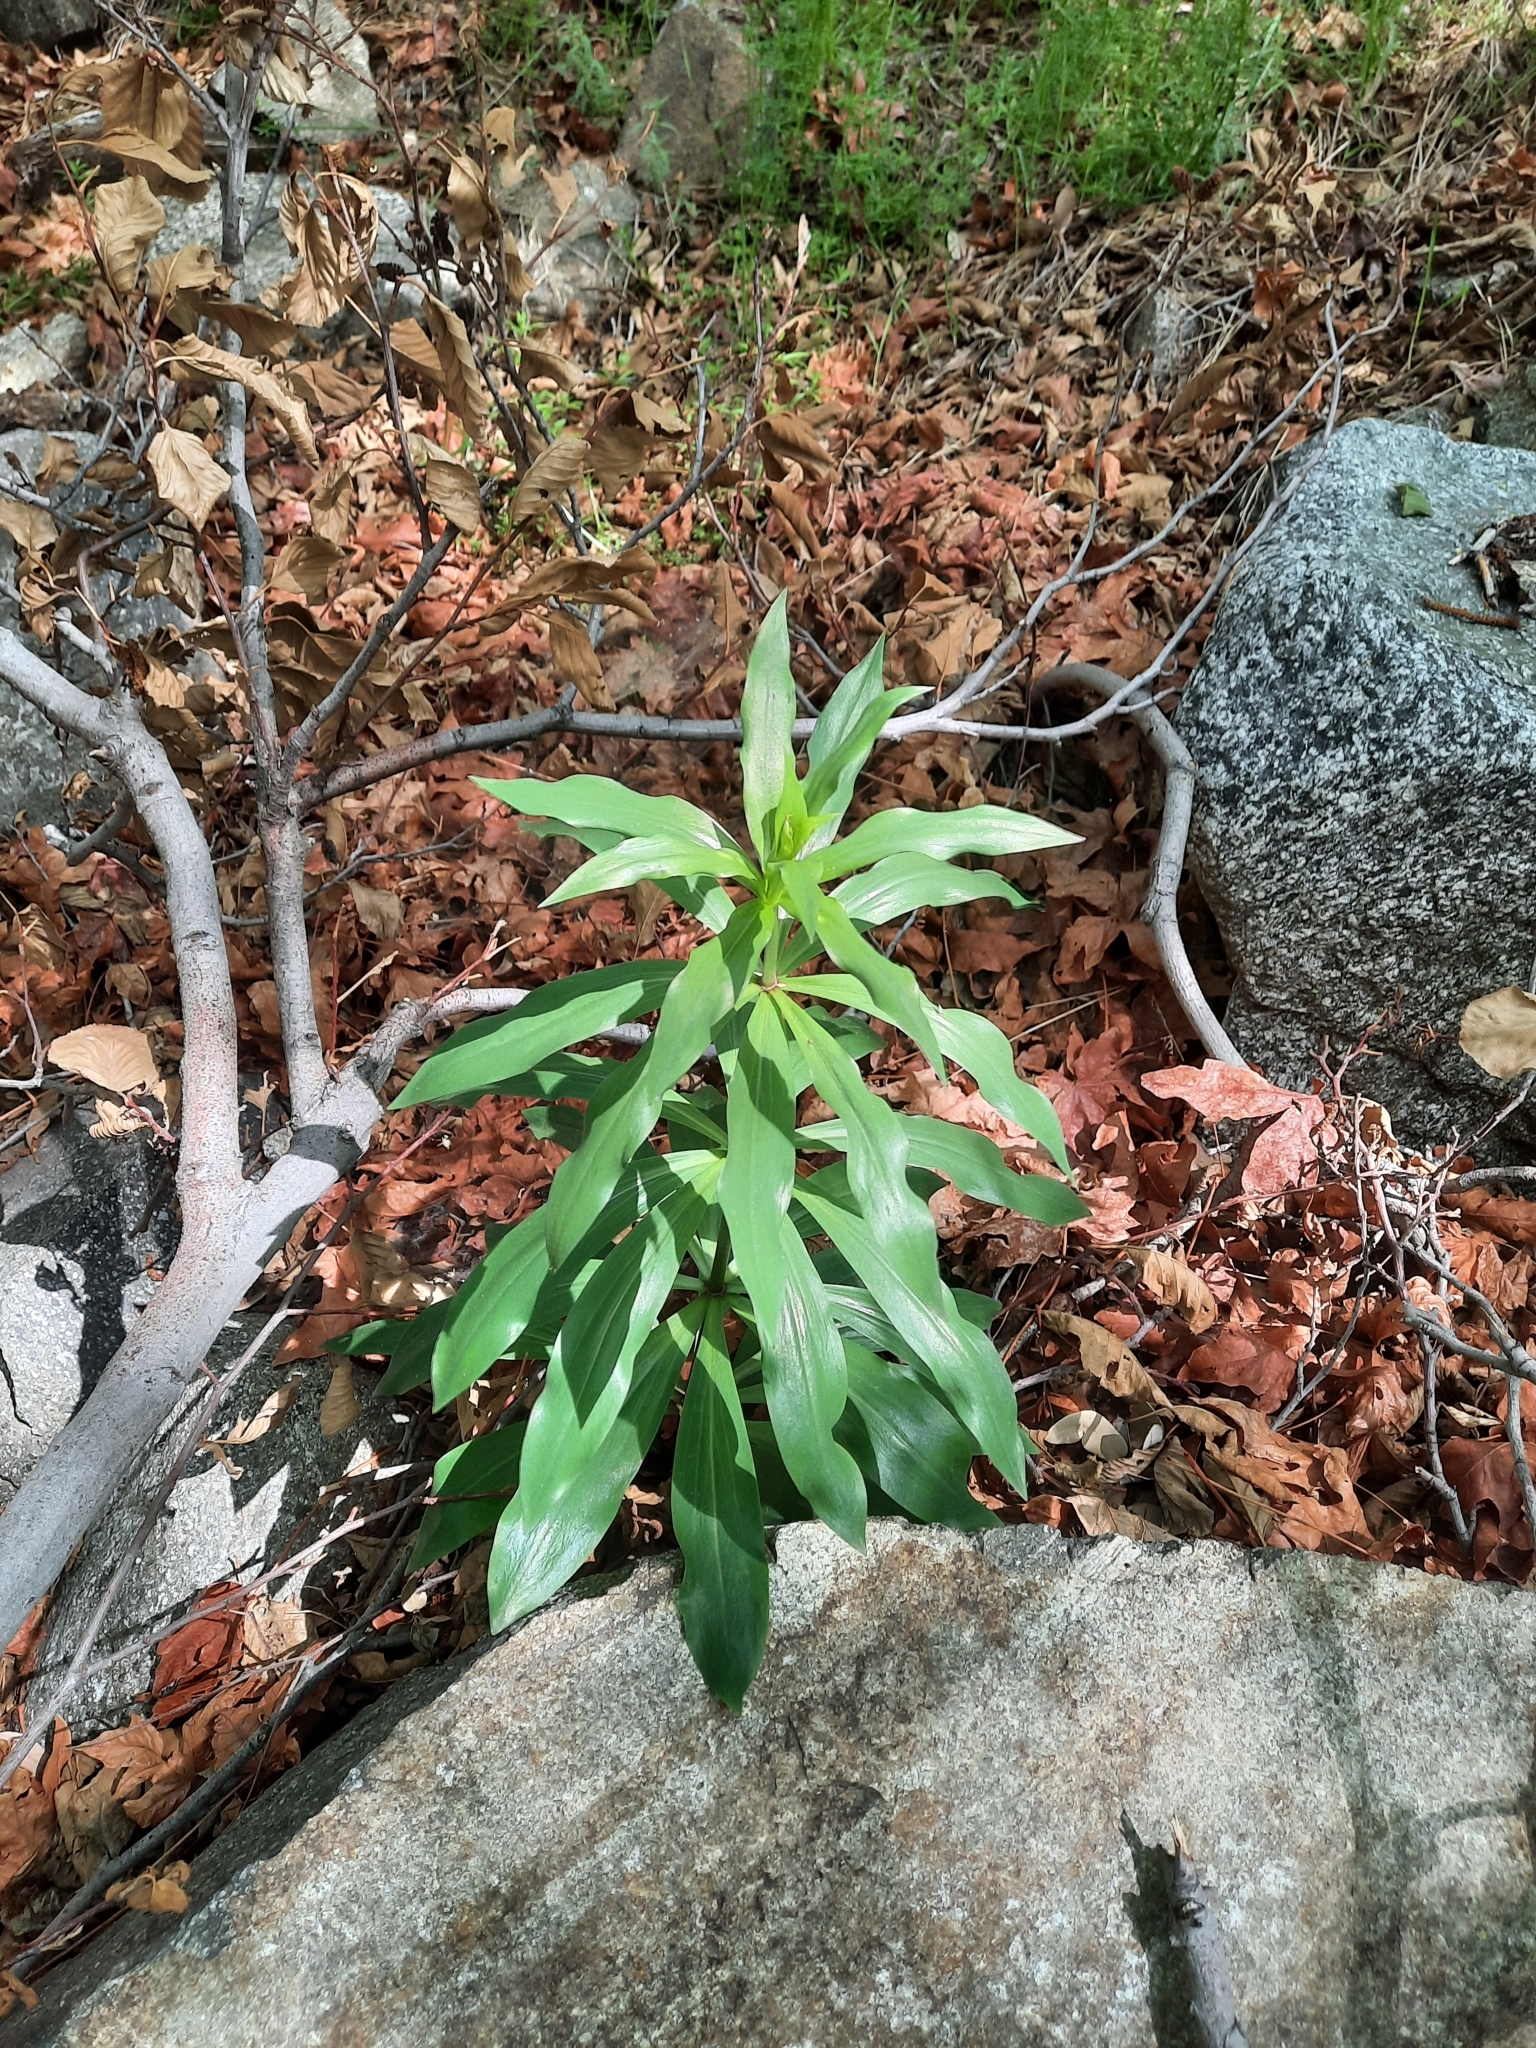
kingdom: Plantae
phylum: Tracheophyta
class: Liliopsida
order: Liliales
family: Liliaceae
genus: Lilium
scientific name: Lilium humboldtii
